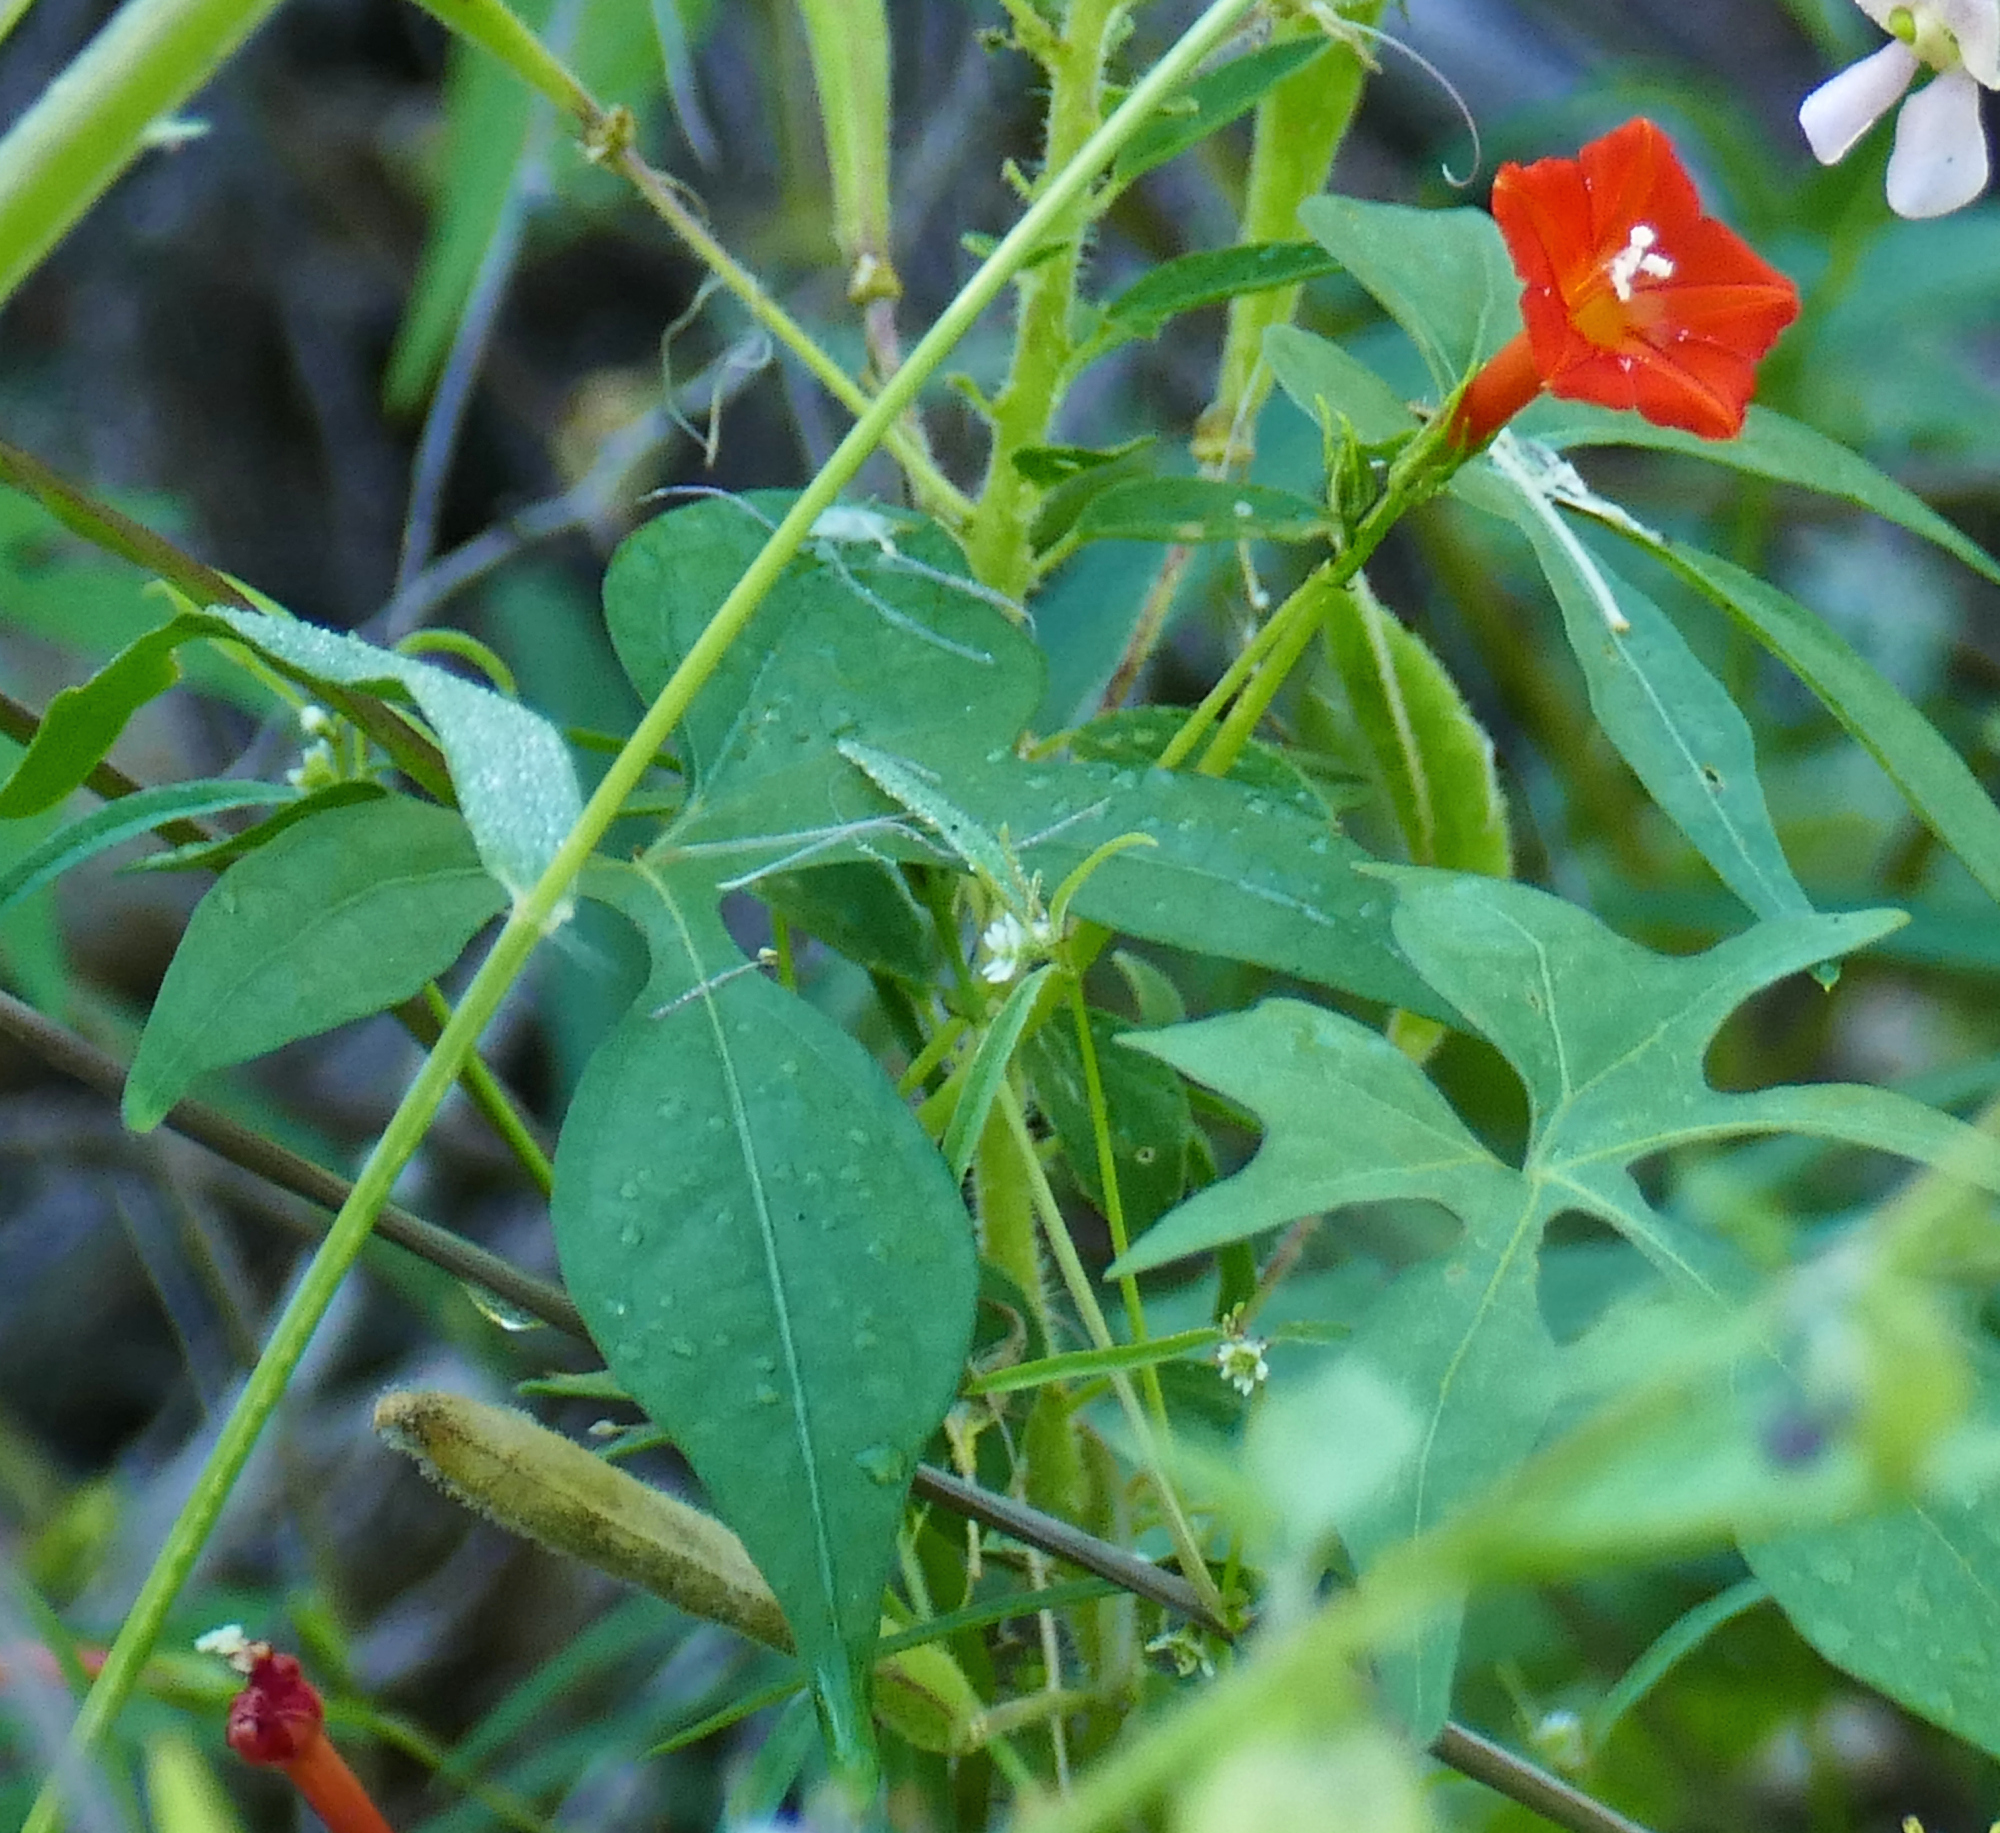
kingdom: Plantae
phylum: Tracheophyta
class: Magnoliopsida
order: Solanales
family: Convolvulaceae
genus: Ipomoea
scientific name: Ipomoea cristulata
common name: Trans-pecos morning-glory
